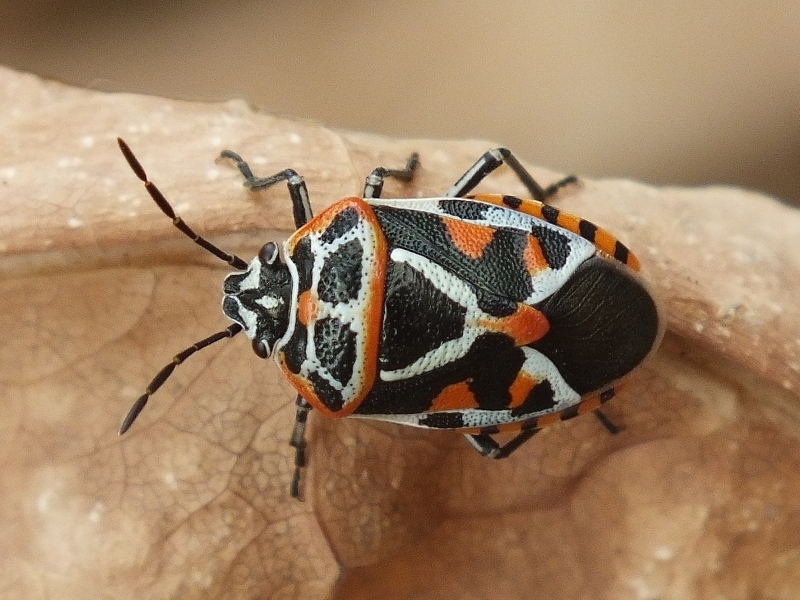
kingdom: Animalia
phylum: Arthropoda
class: Insecta
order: Hemiptera
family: Pentatomidae
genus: Eurydema
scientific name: Eurydema ornata
